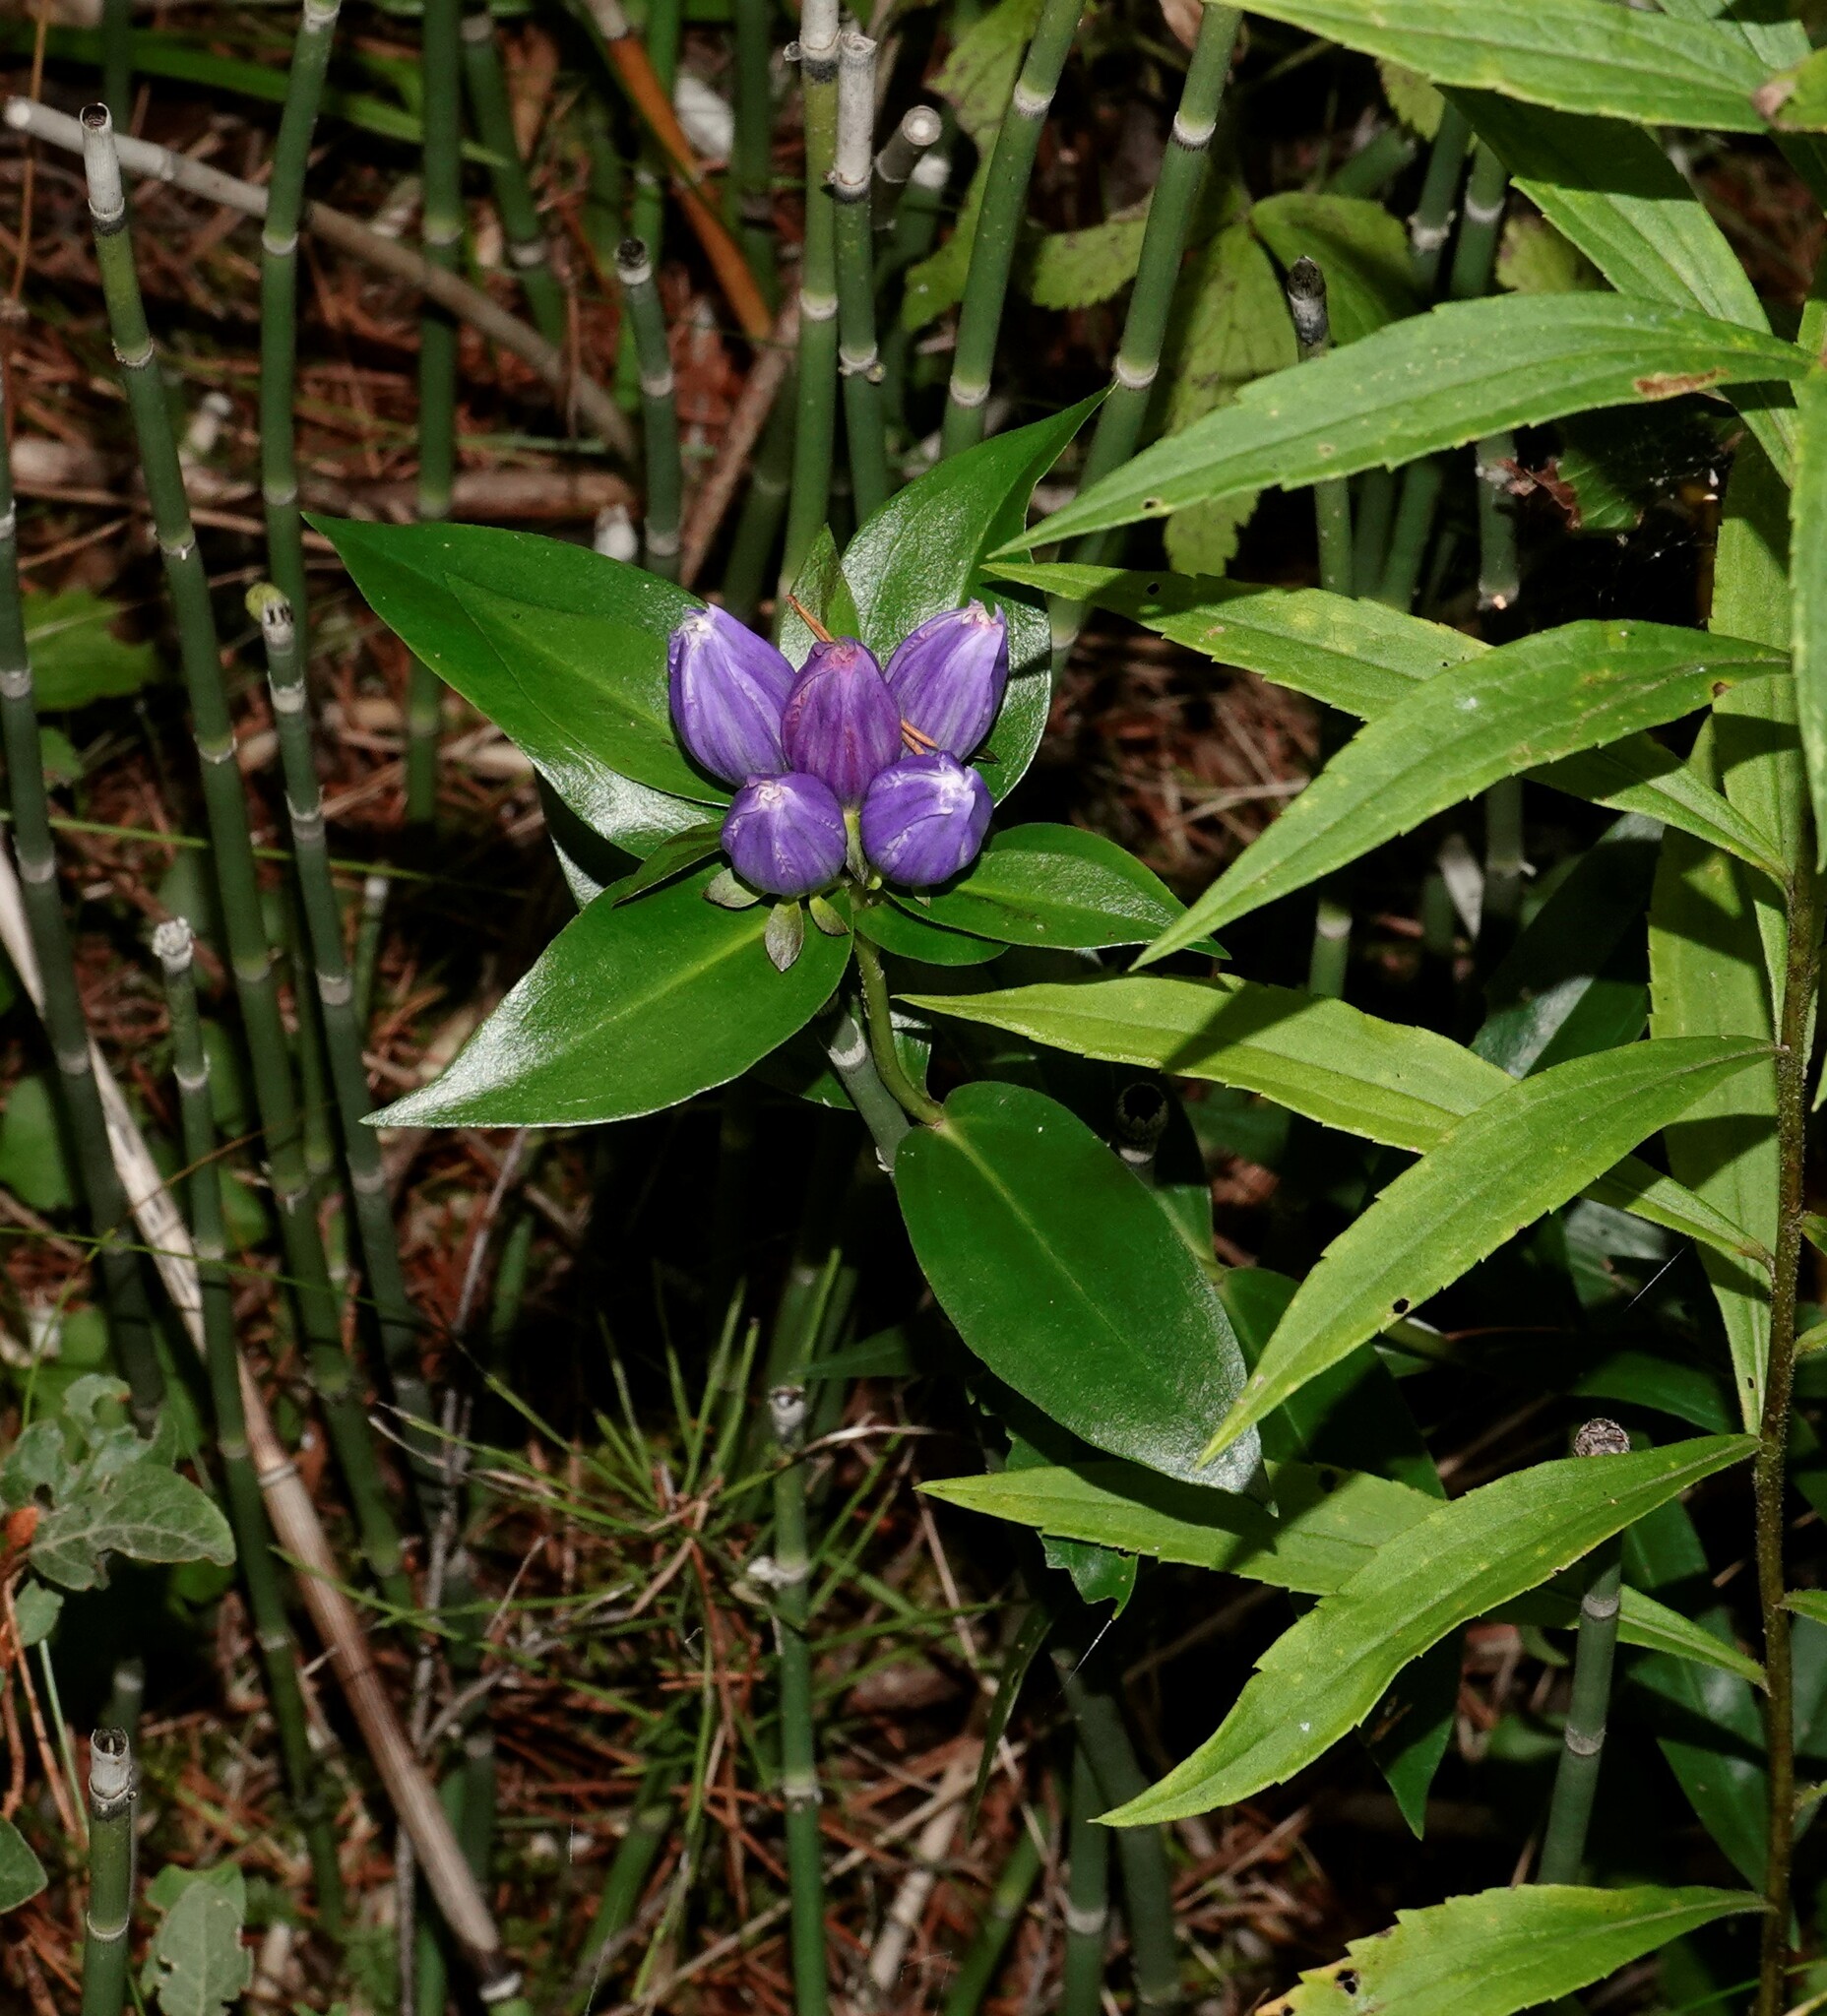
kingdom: Plantae
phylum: Tracheophyta
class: Magnoliopsida
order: Gentianales
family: Gentianaceae
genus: Gentiana
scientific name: Gentiana andrewsii
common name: Bottle gentian
